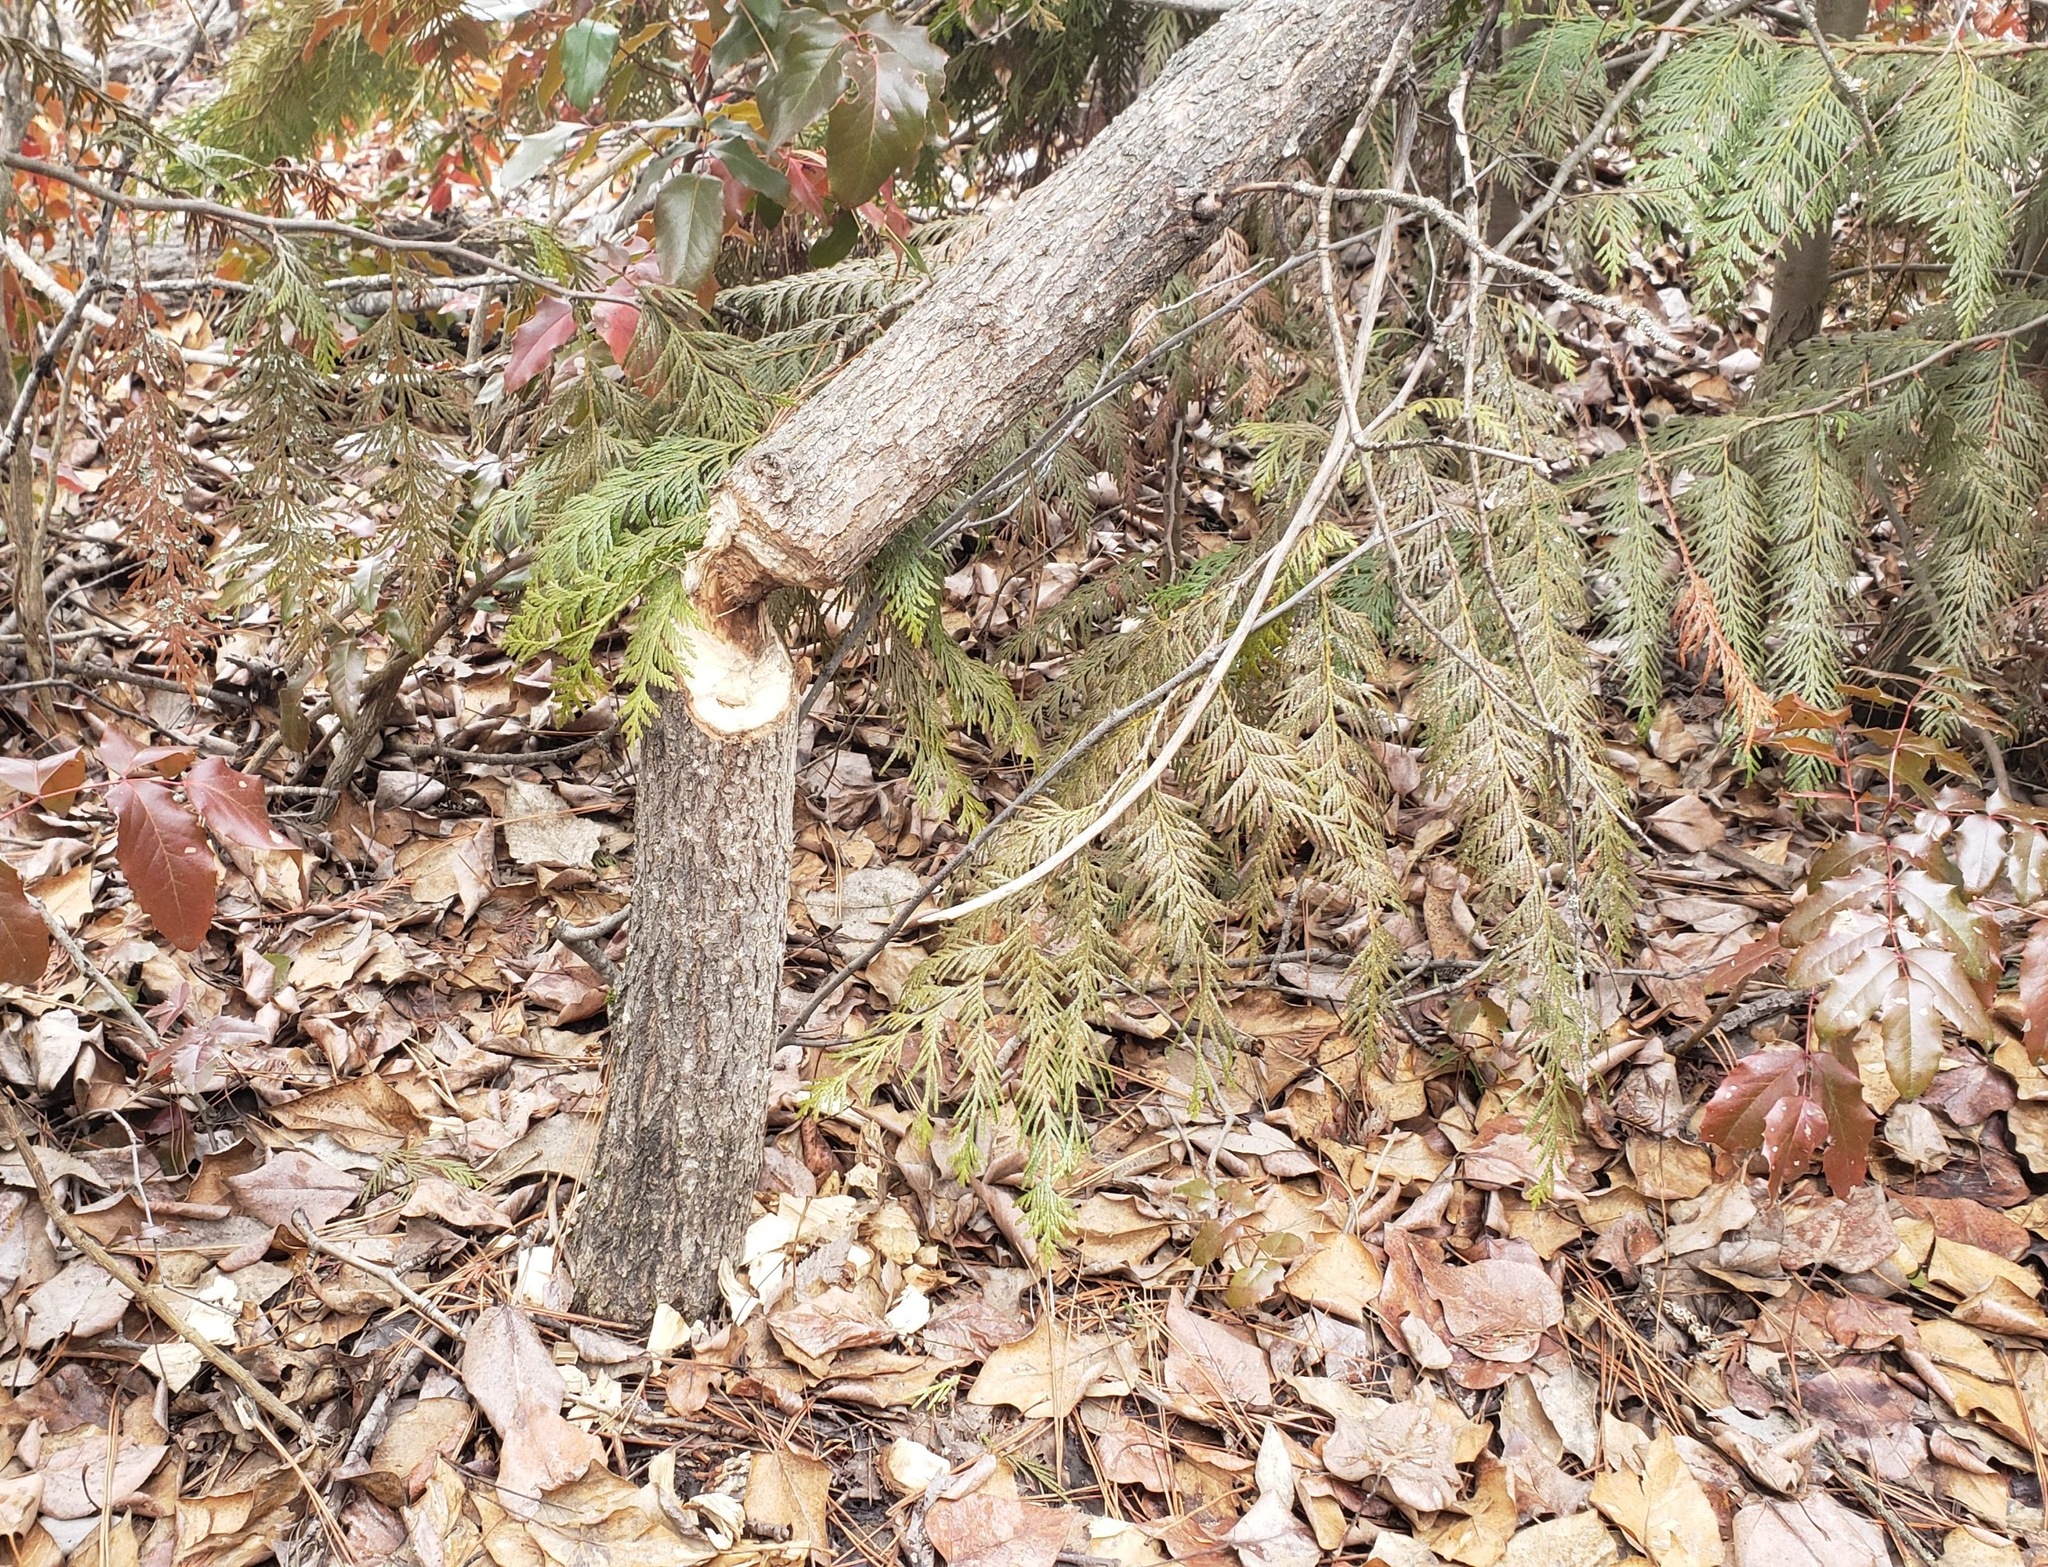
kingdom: Animalia
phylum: Chordata
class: Mammalia
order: Rodentia
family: Castoridae
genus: Castor
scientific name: Castor canadensis
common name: American beaver
